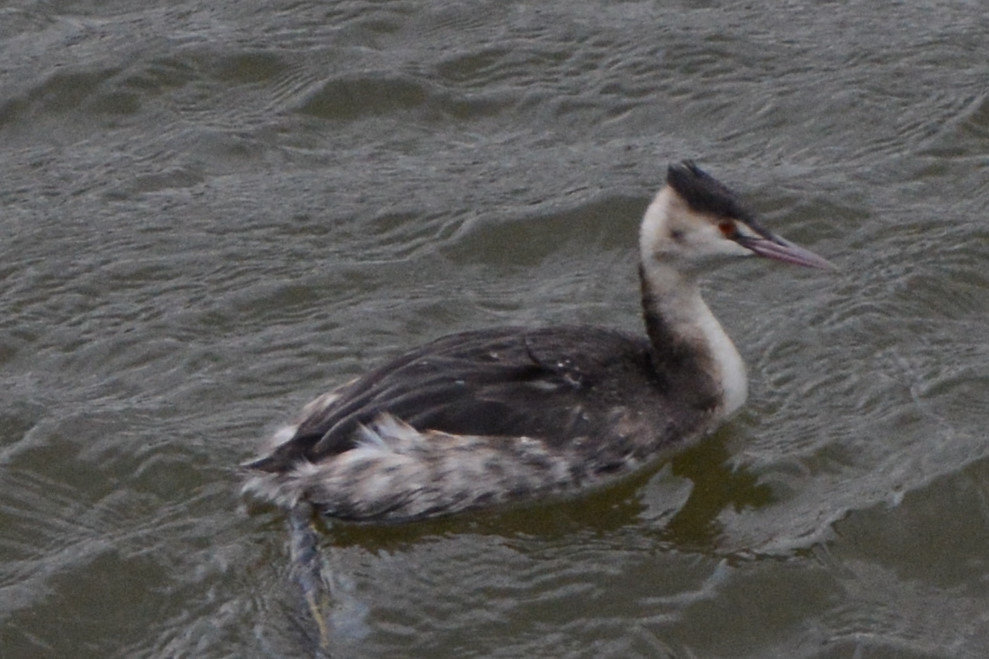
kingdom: Animalia
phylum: Chordata
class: Aves
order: Podicipediformes
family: Podicipedidae
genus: Podiceps
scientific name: Podiceps cristatus
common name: Great crested grebe
